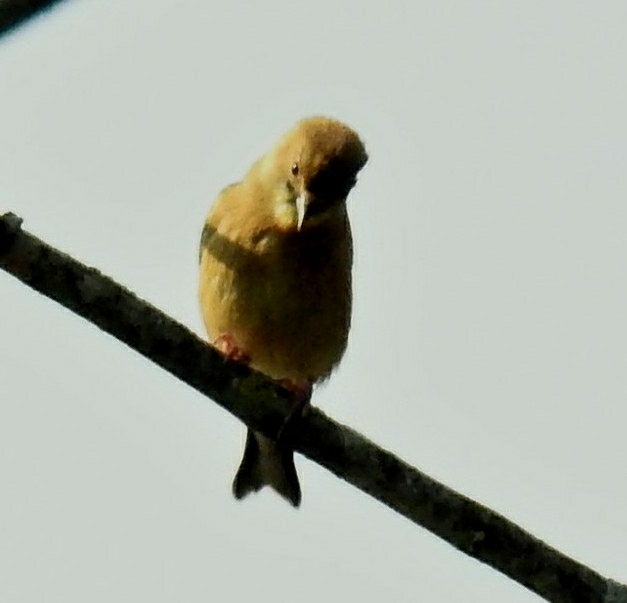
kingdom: Animalia
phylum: Chordata
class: Aves
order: Passeriformes
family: Fringillidae
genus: Spinus
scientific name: Spinus tristis
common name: American goldfinch
